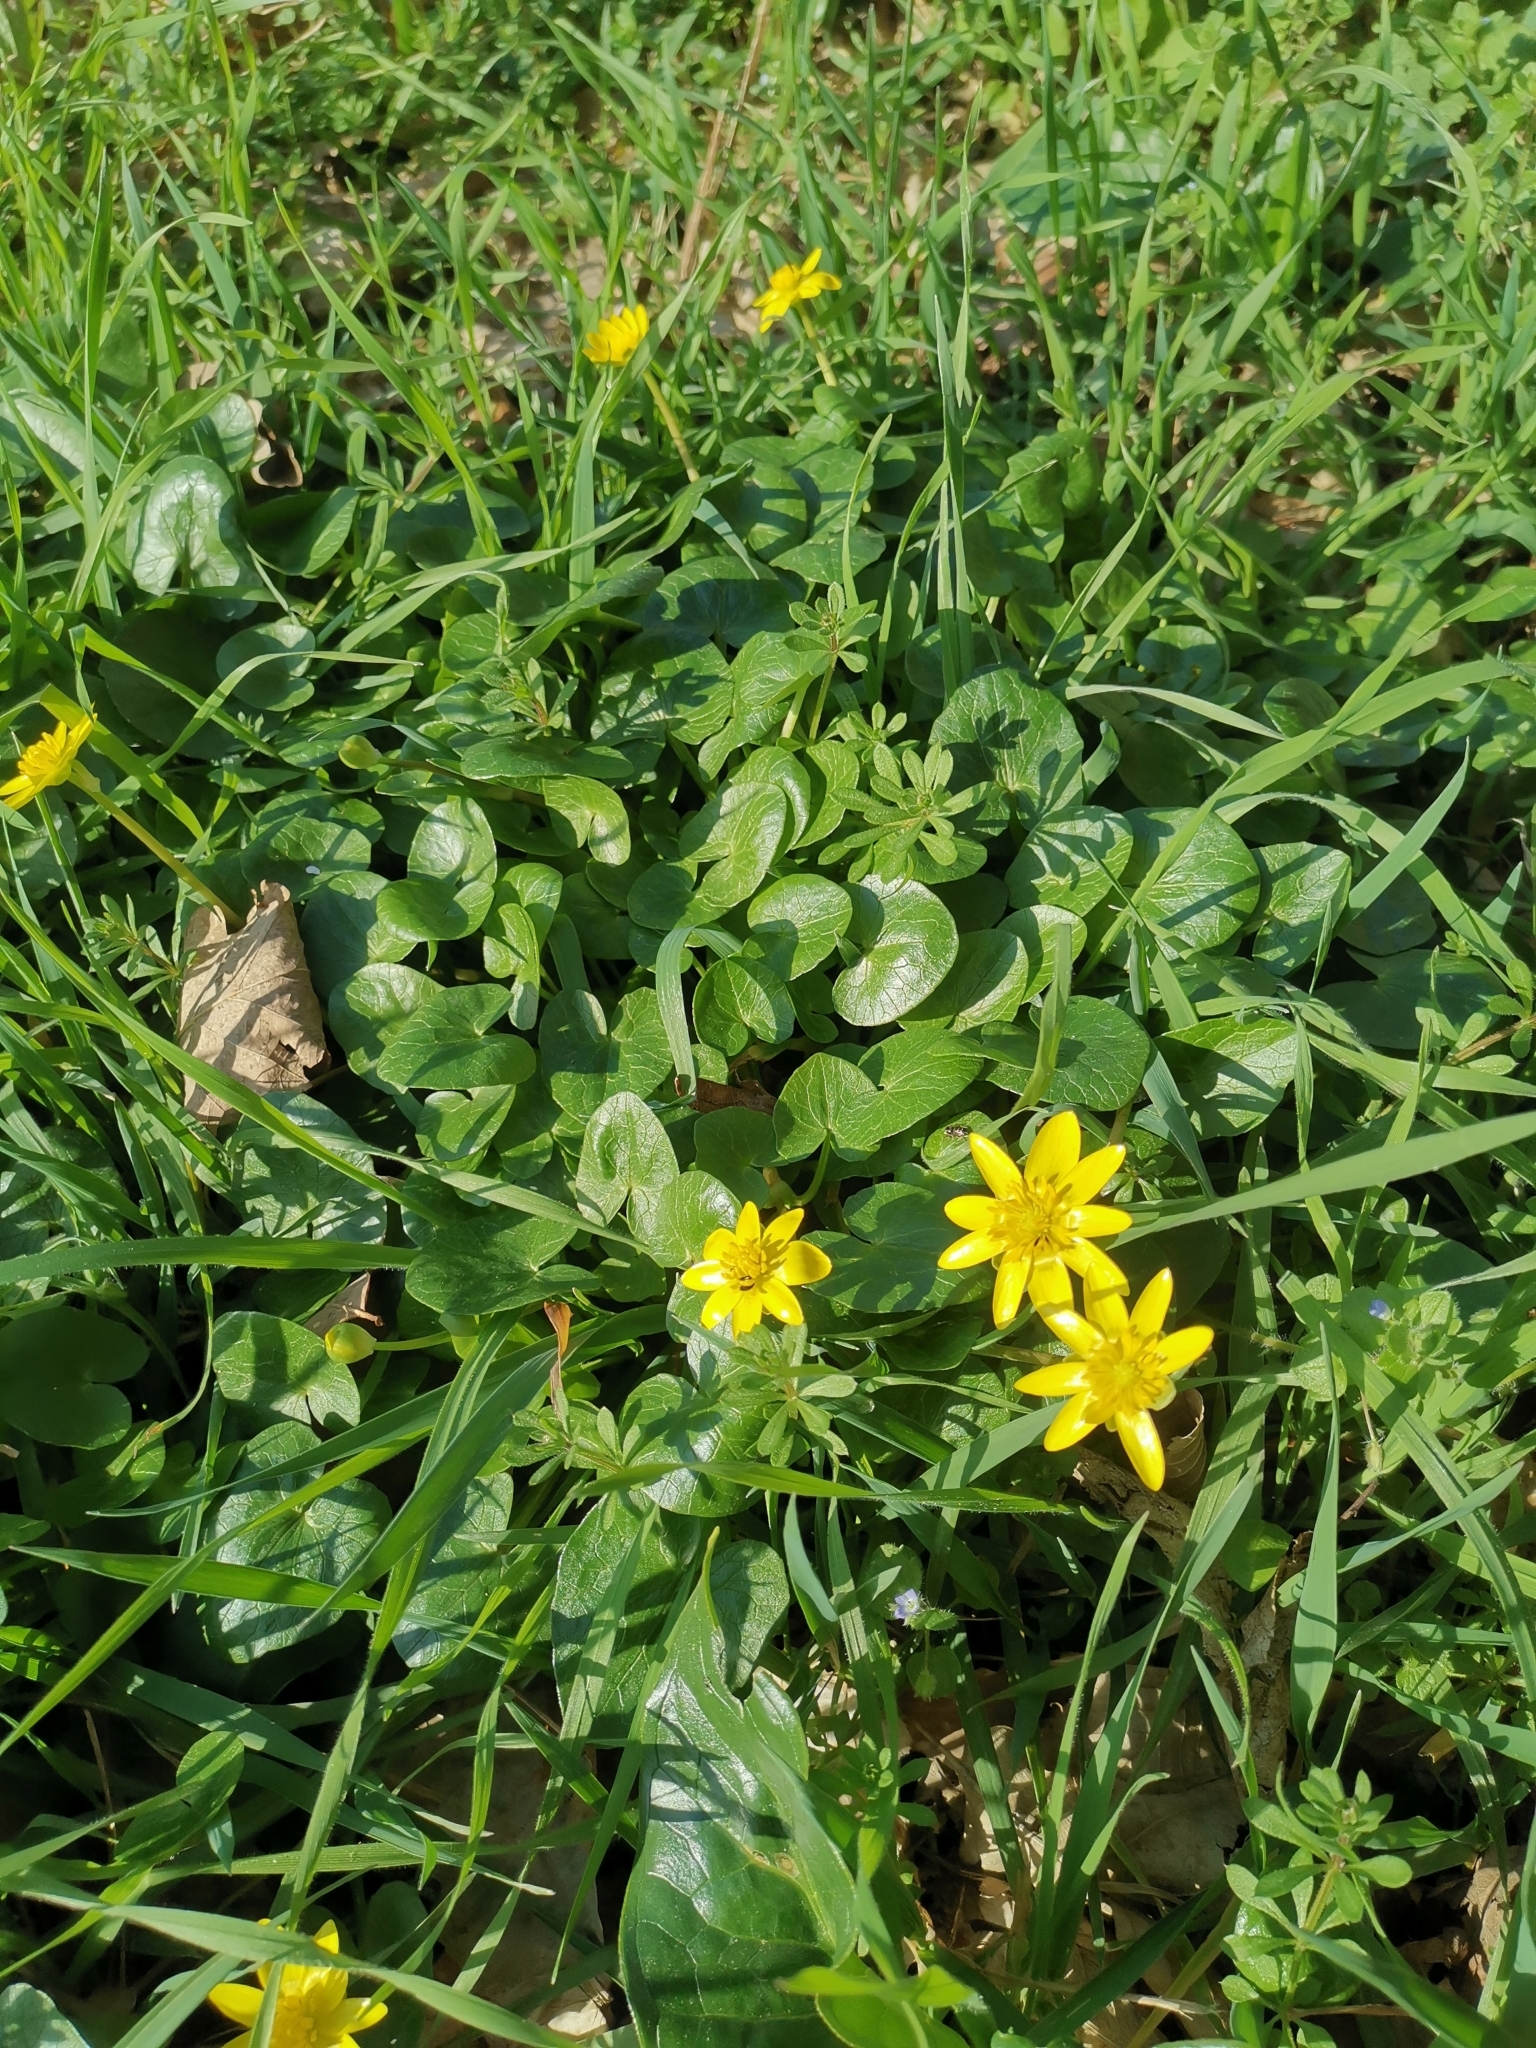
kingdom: Plantae
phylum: Tracheophyta
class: Magnoliopsida
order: Ranunculales
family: Ranunculaceae
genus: Ficaria
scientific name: Ficaria verna
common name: Lesser celandine
